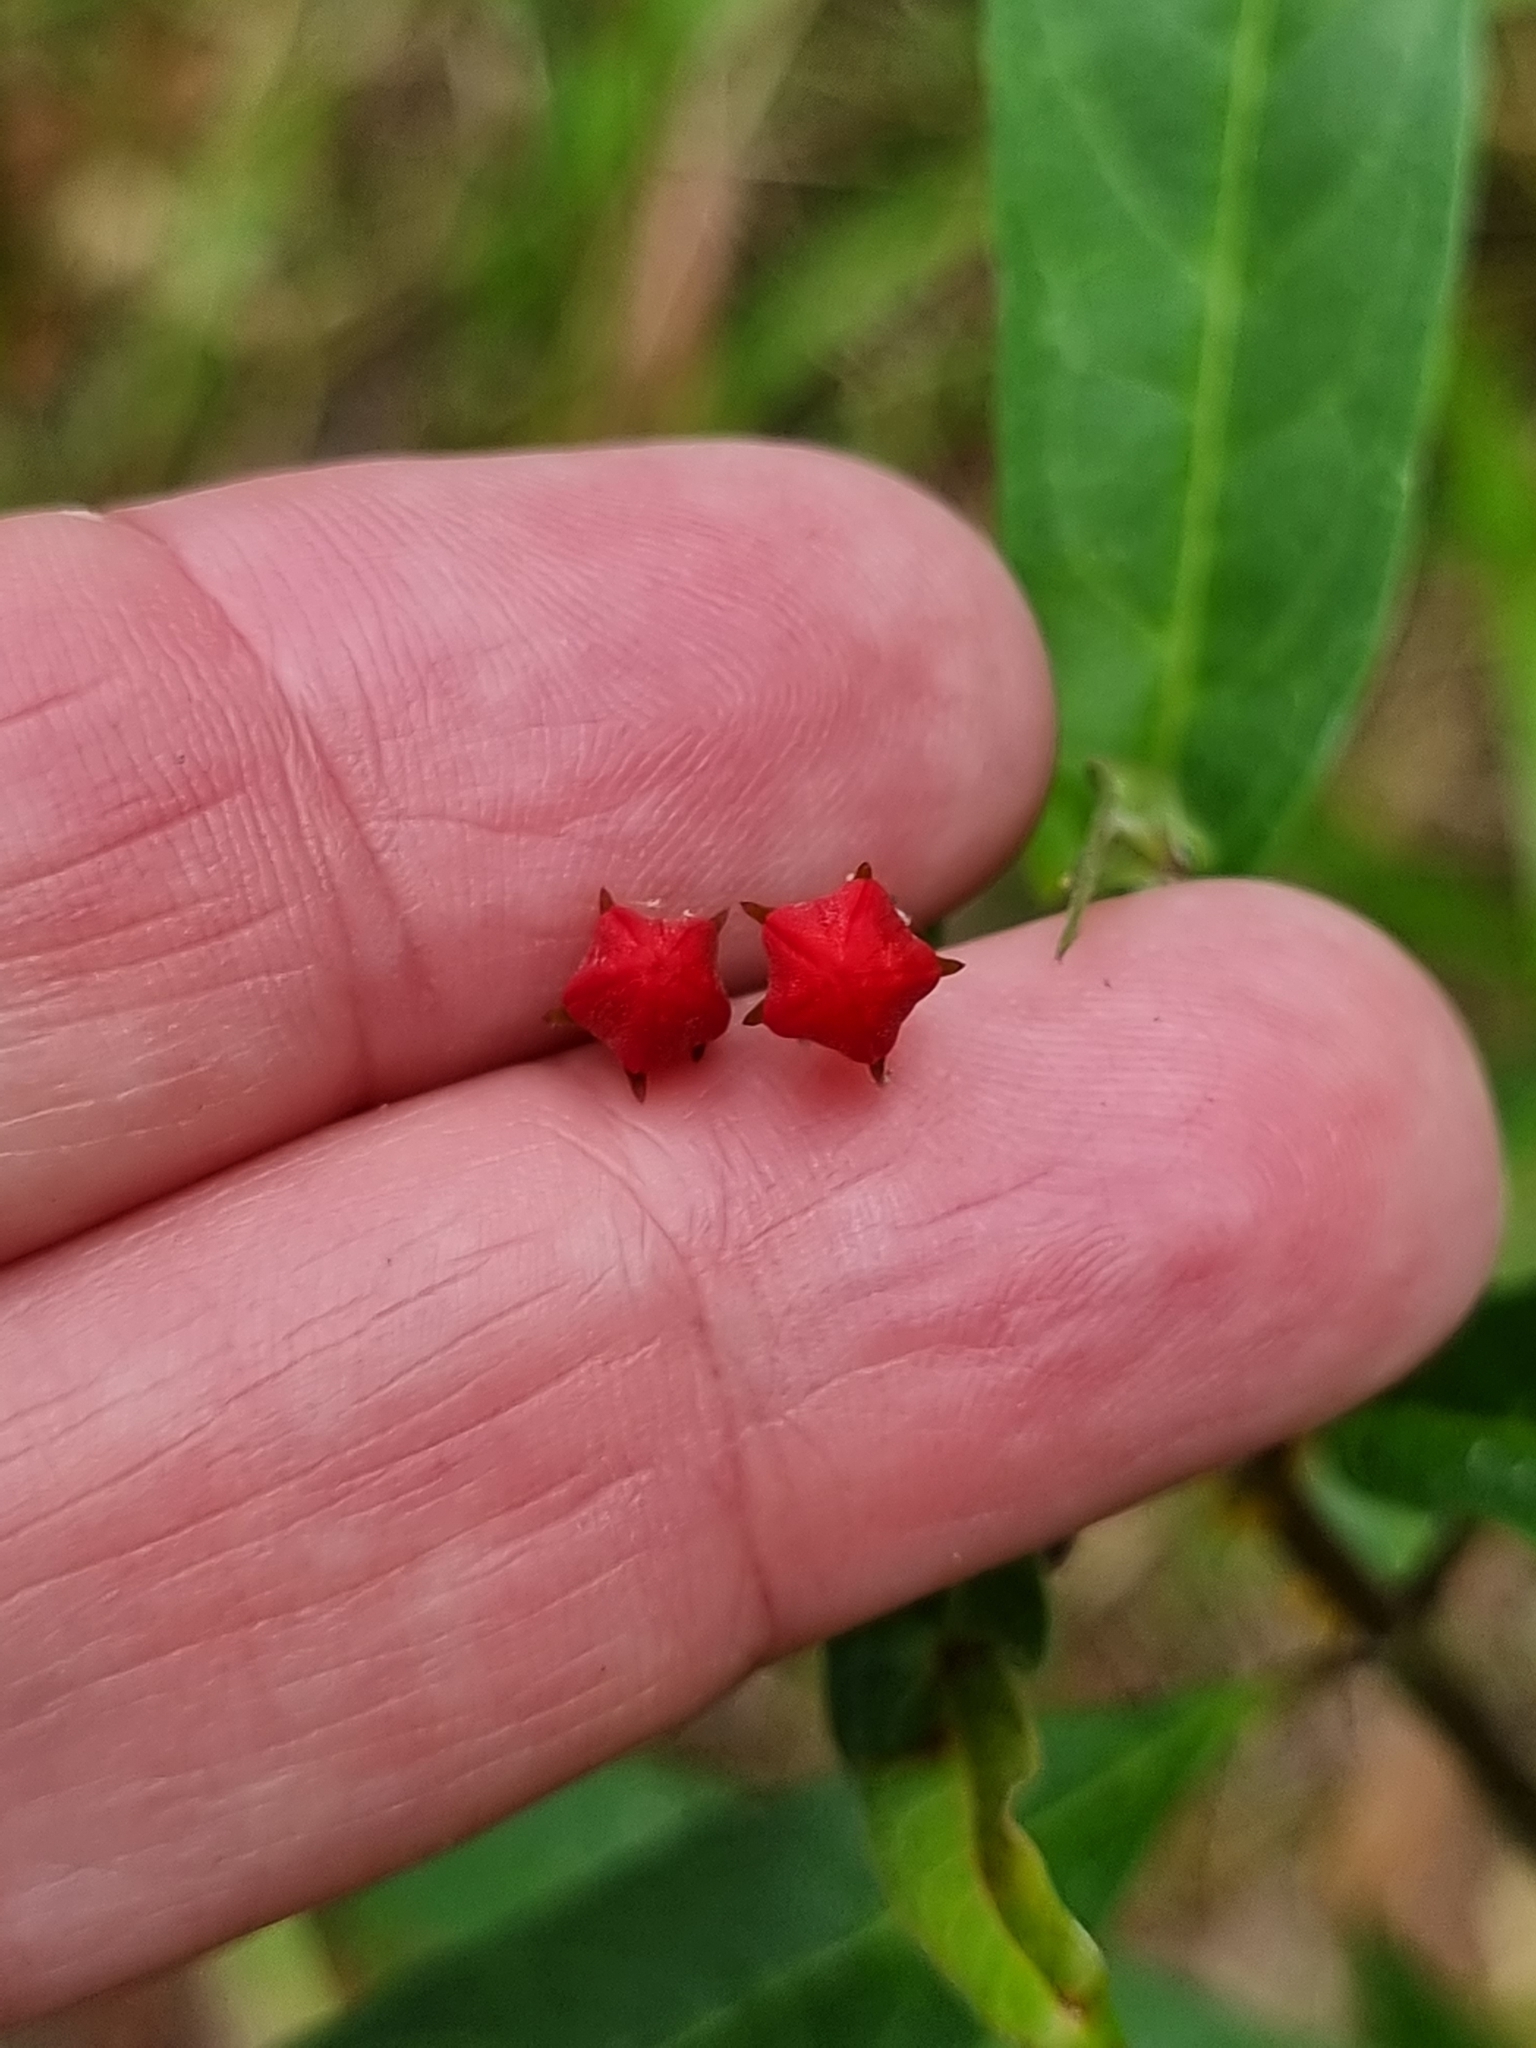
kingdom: Plantae
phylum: Tracheophyta
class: Magnoliopsida
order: Gentianales
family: Apocynaceae
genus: Asclepias
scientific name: Asclepias curassavica
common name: Bloodflower
